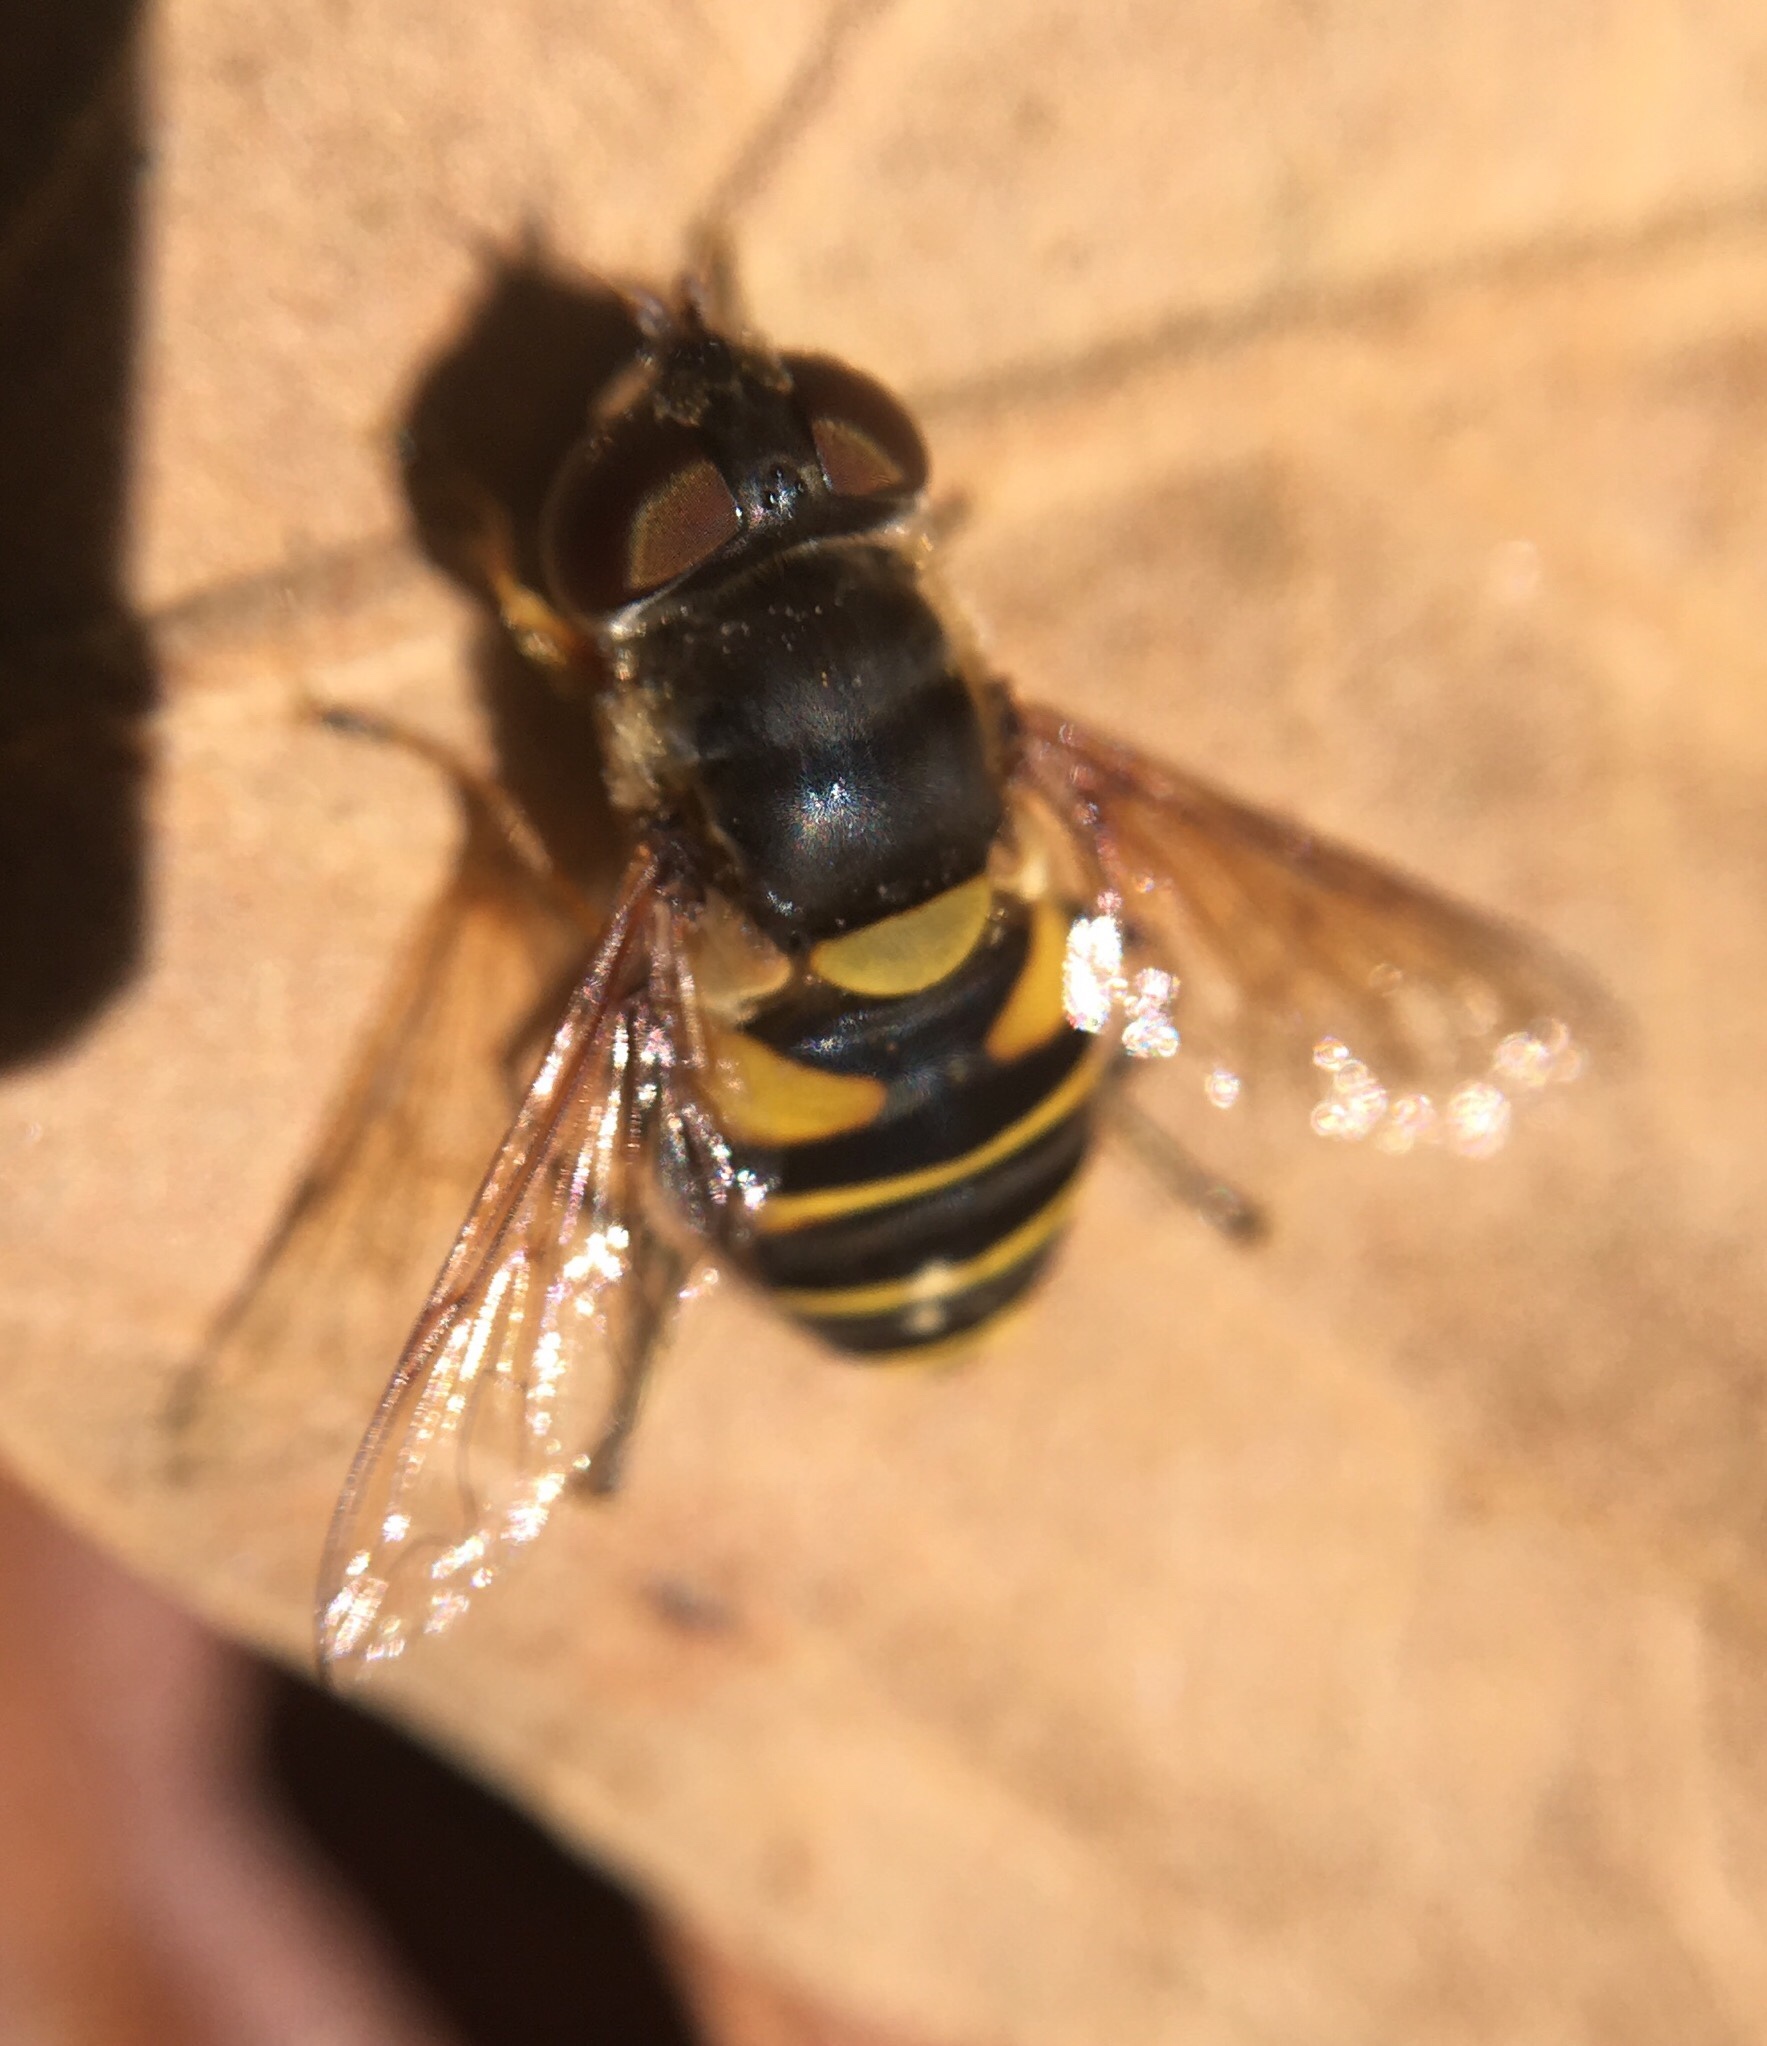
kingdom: Animalia
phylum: Arthropoda
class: Insecta
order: Diptera
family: Syrphidae
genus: Eristalis
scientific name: Eristalis transversa
